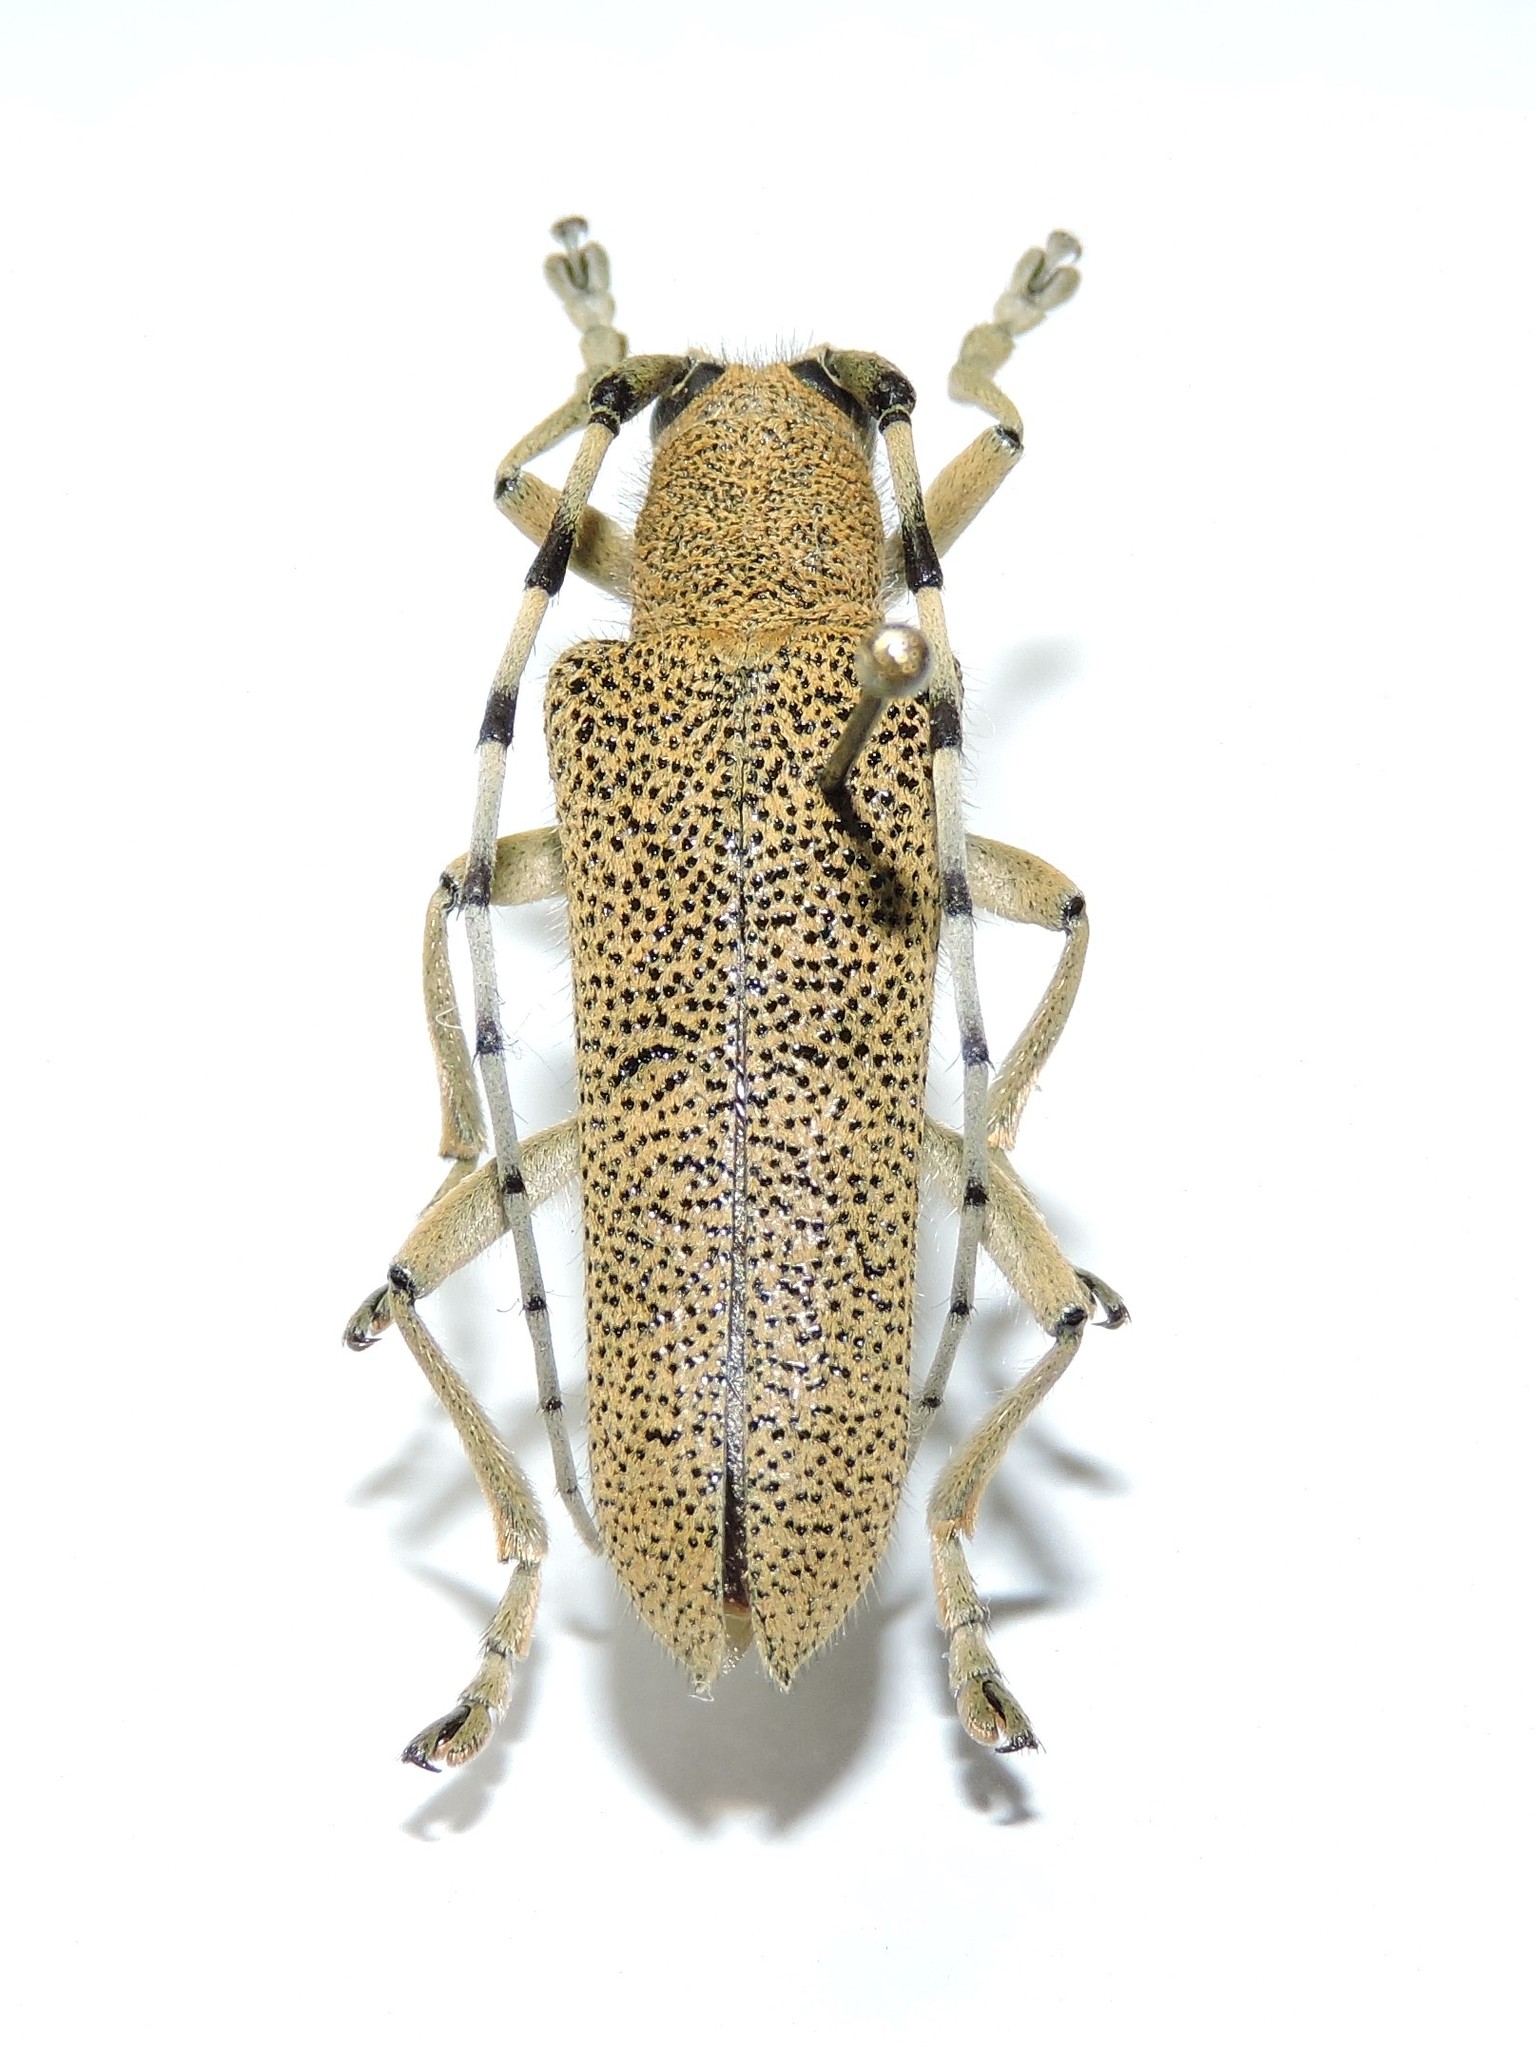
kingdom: Animalia
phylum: Arthropoda
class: Insecta
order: Coleoptera
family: Cerambycidae
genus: Saperda
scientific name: Saperda carcharias
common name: Poplar borer
